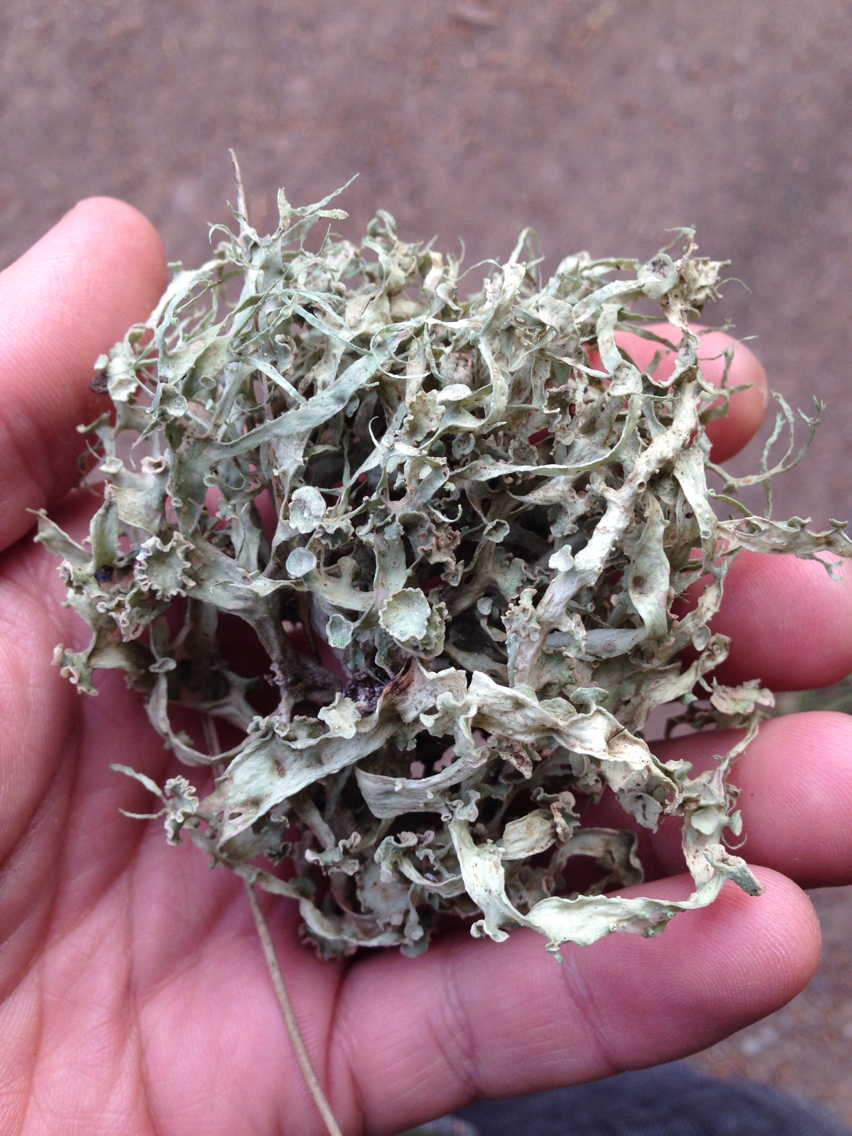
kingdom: Fungi
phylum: Ascomycota
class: Lecanoromycetes
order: Lecanorales
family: Ramalinaceae
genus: Ramalina
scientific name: Ramalina leptocarpha
